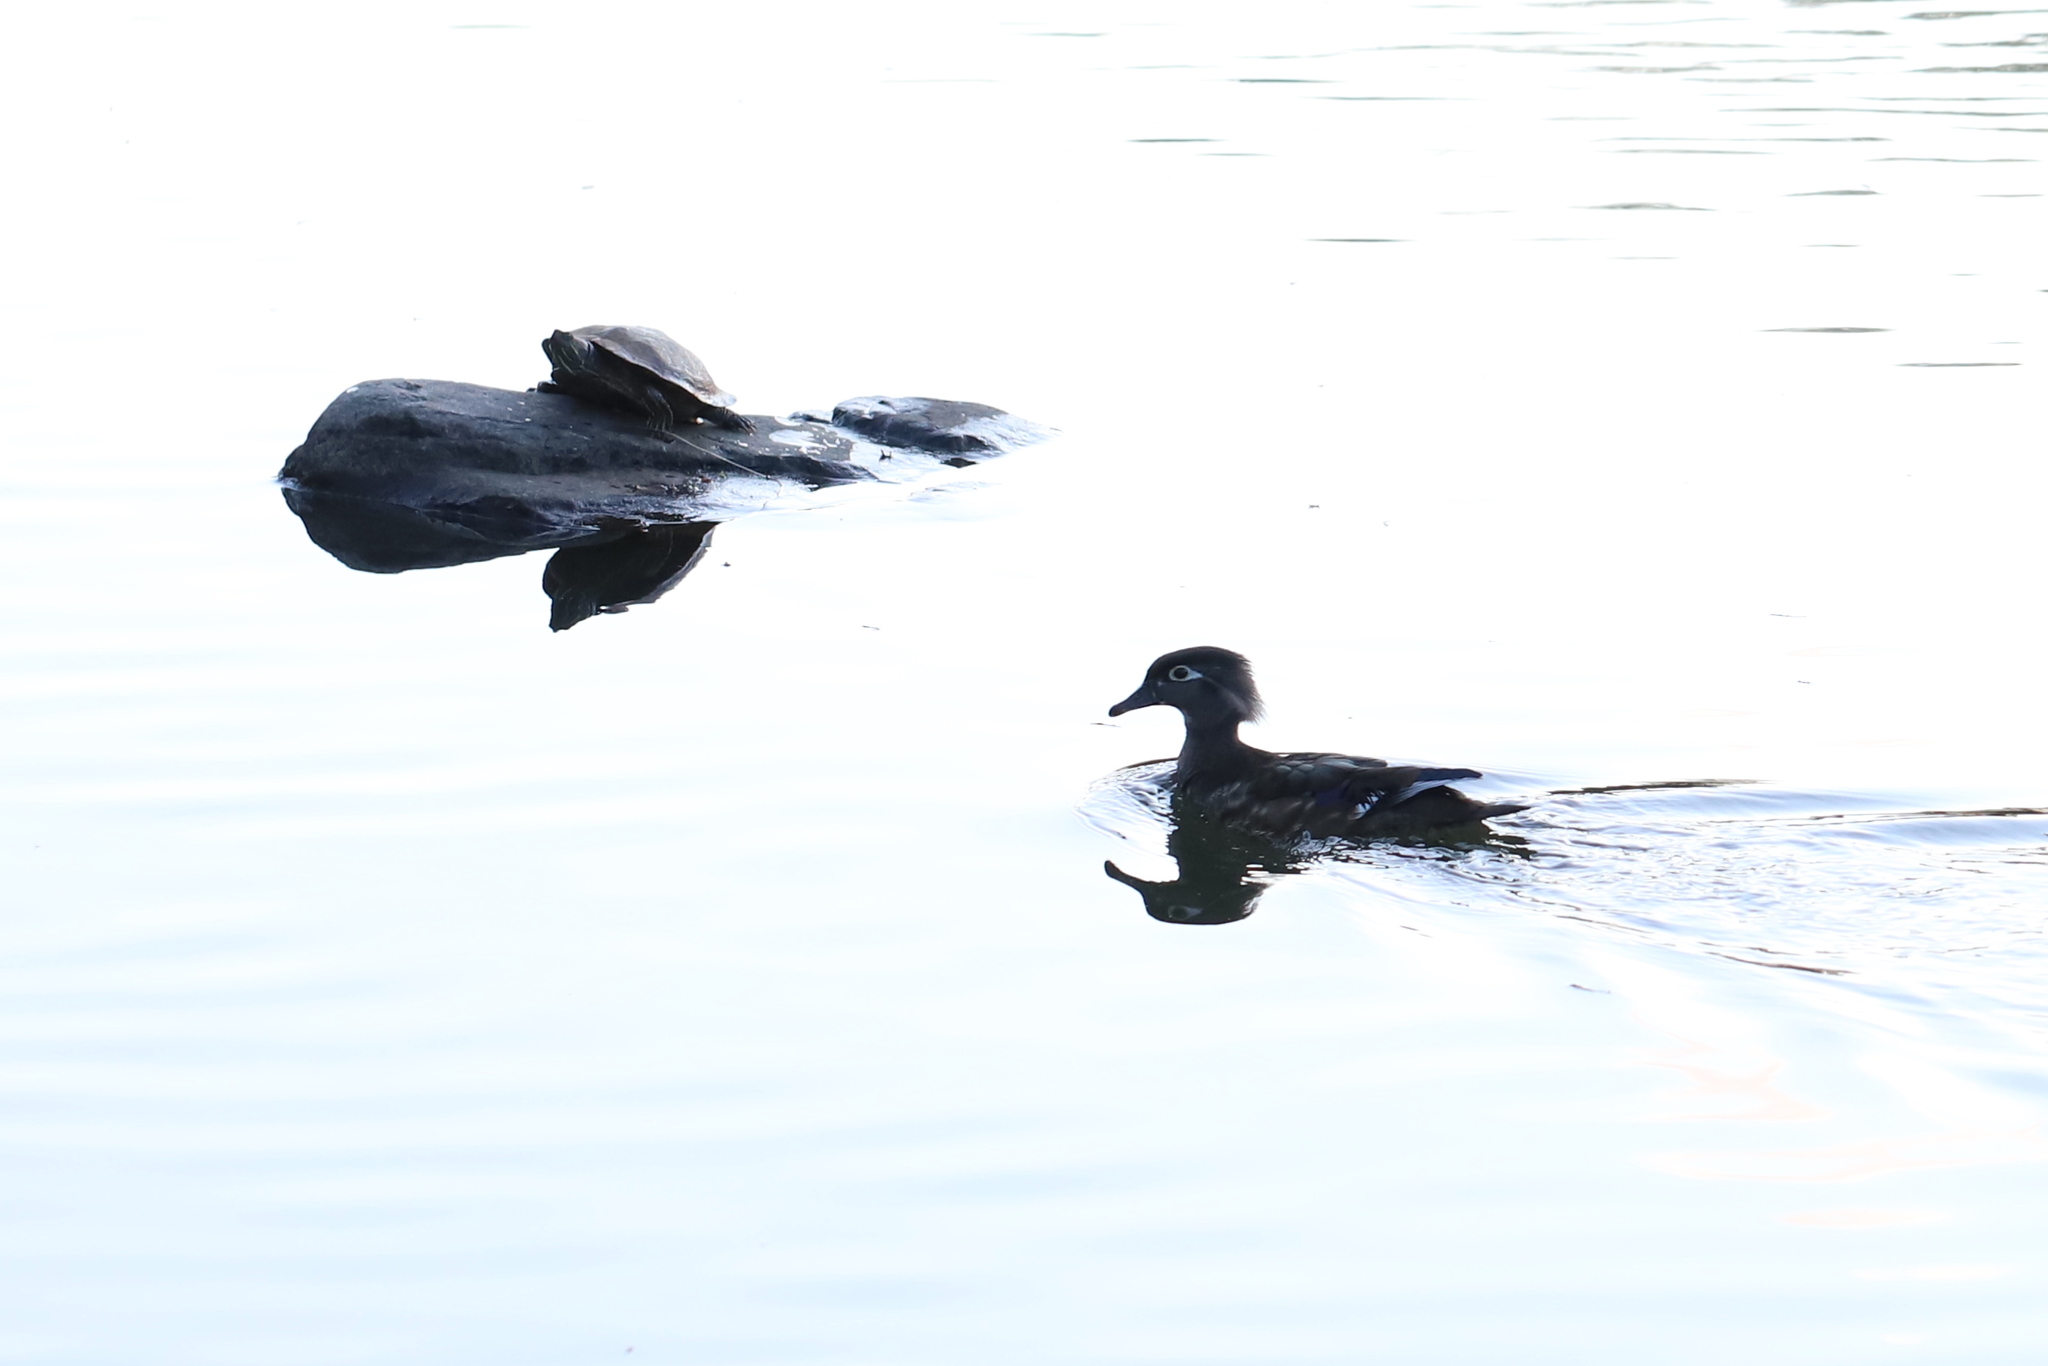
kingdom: Animalia
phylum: Chordata
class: Aves
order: Anseriformes
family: Anatidae
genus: Aix
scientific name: Aix sponsa
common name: Wood duck
